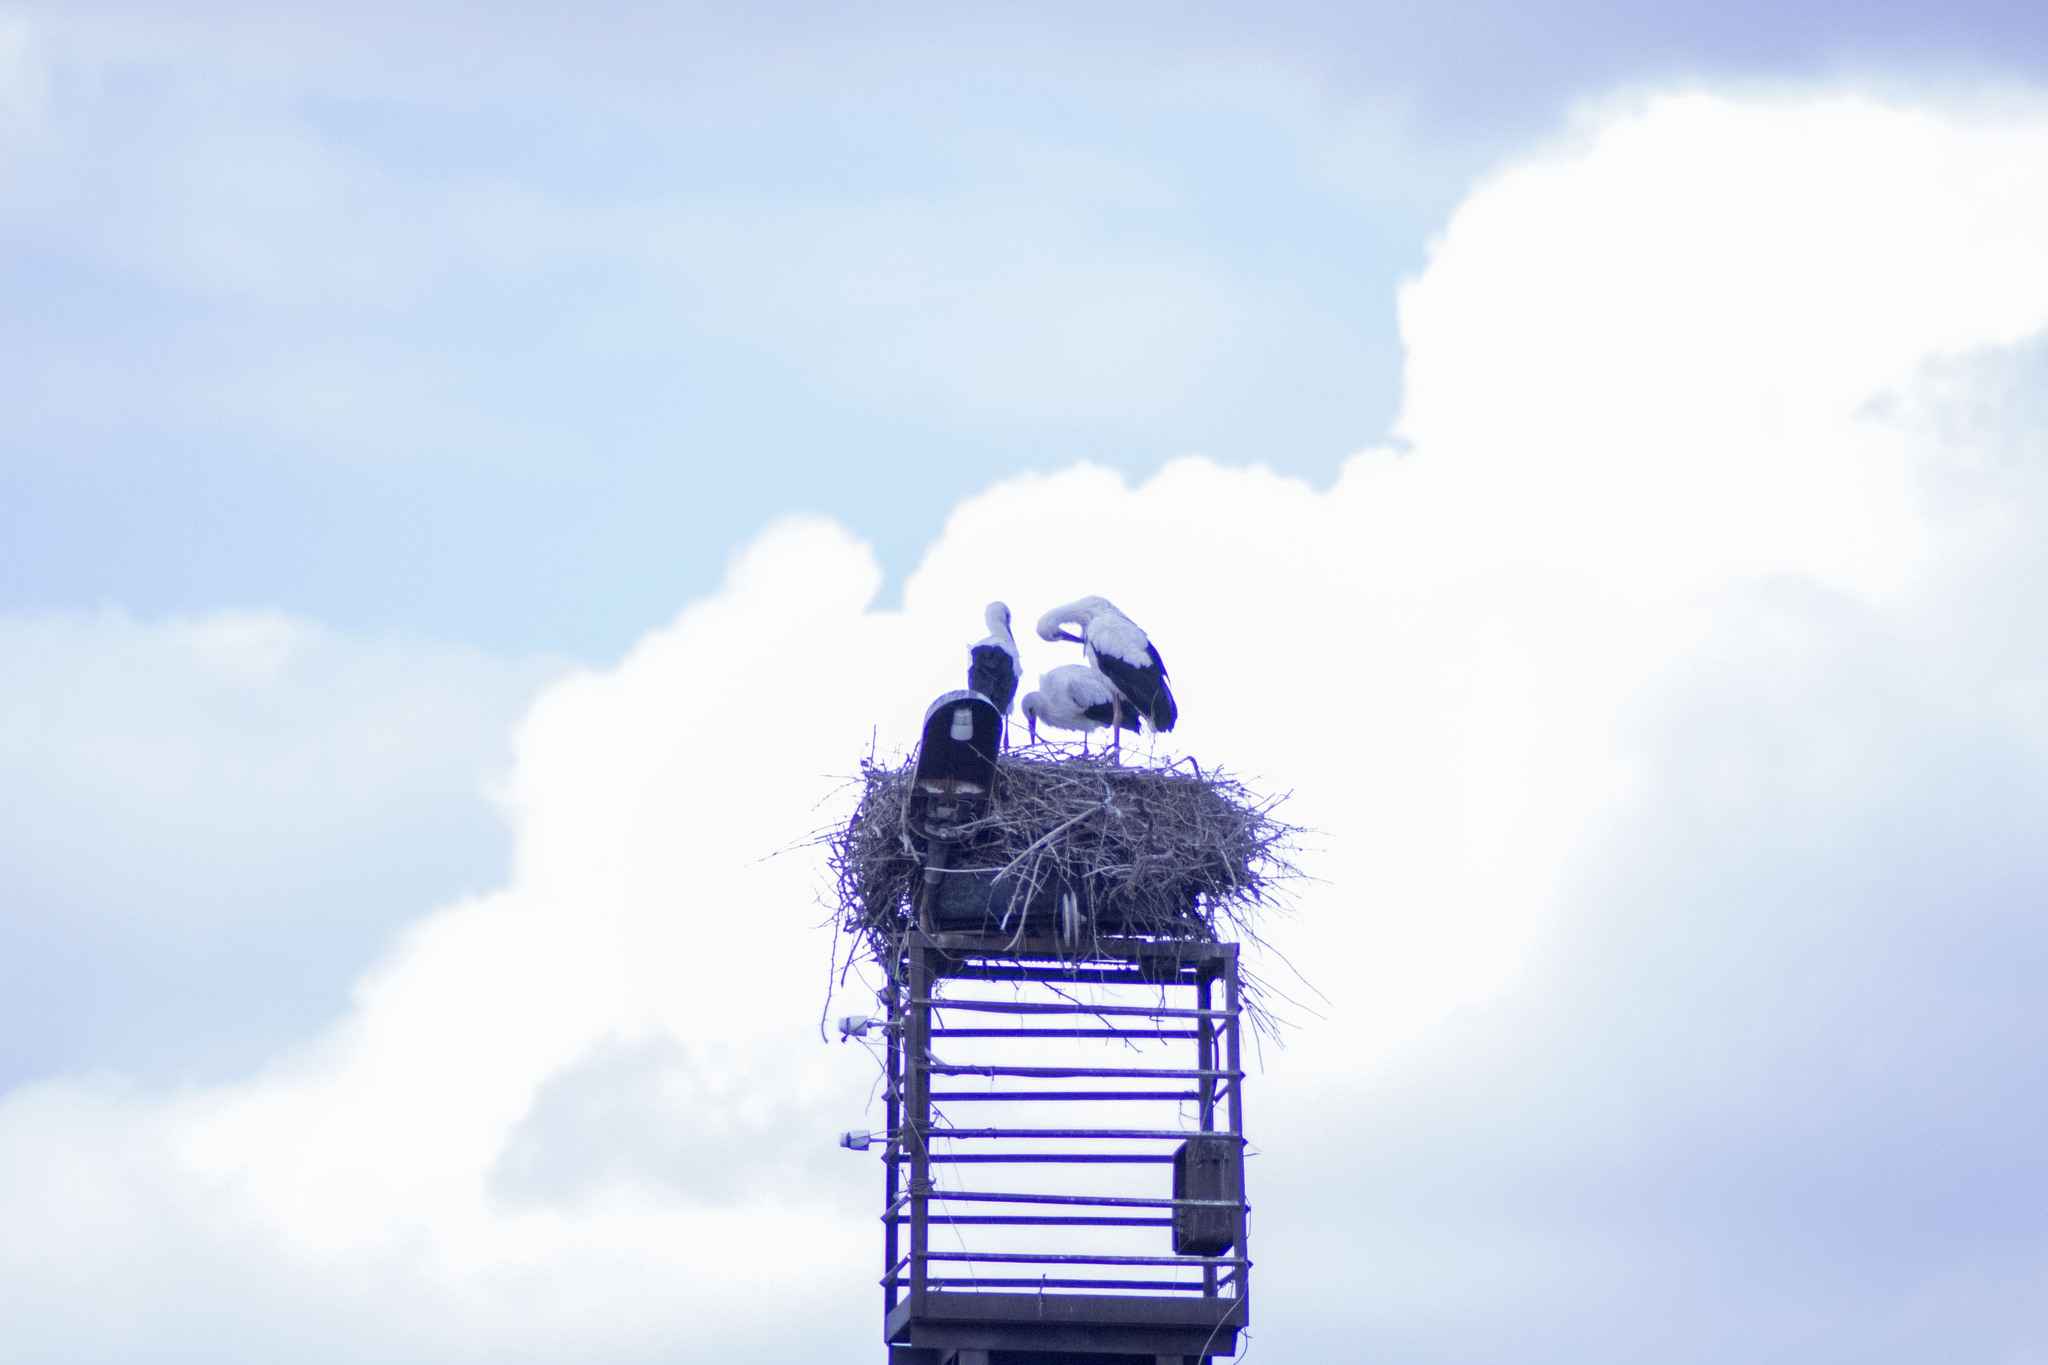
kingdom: Animalia
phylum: Chordata
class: Aves
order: Ciconiiformes
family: Ciconiidae
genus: Ciconia
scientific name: Ciconia ciconia
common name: White stork
